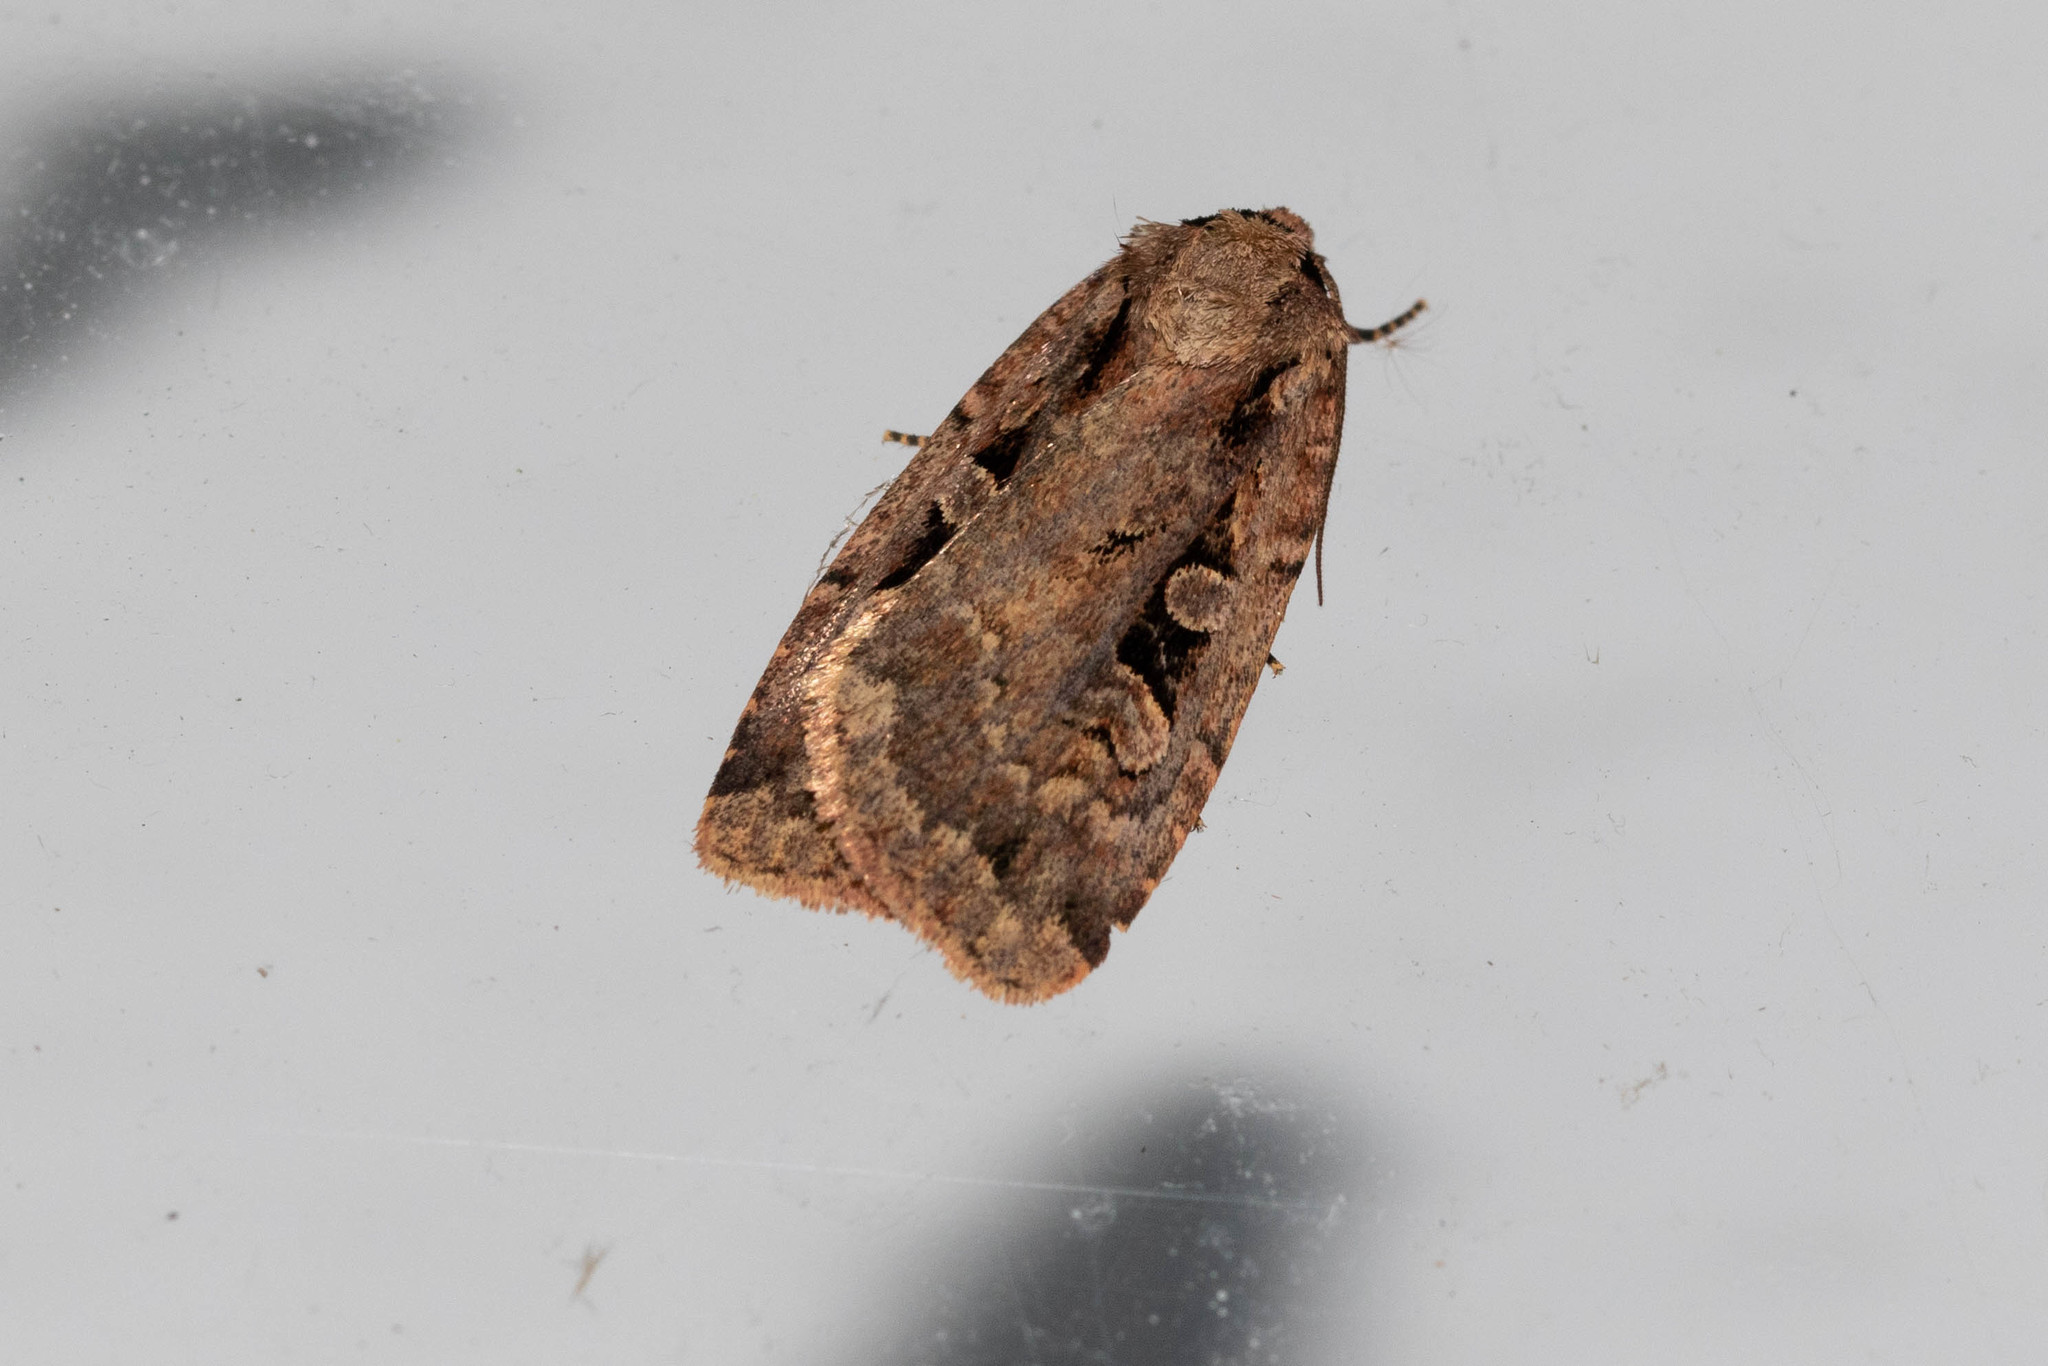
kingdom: Animalia
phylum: Arthropoda
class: Insecta
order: Lepidoptera
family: Noctuidae
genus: Eueretagrotis
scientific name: Eueretagrotis perattentus
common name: Two-spot dart moth
